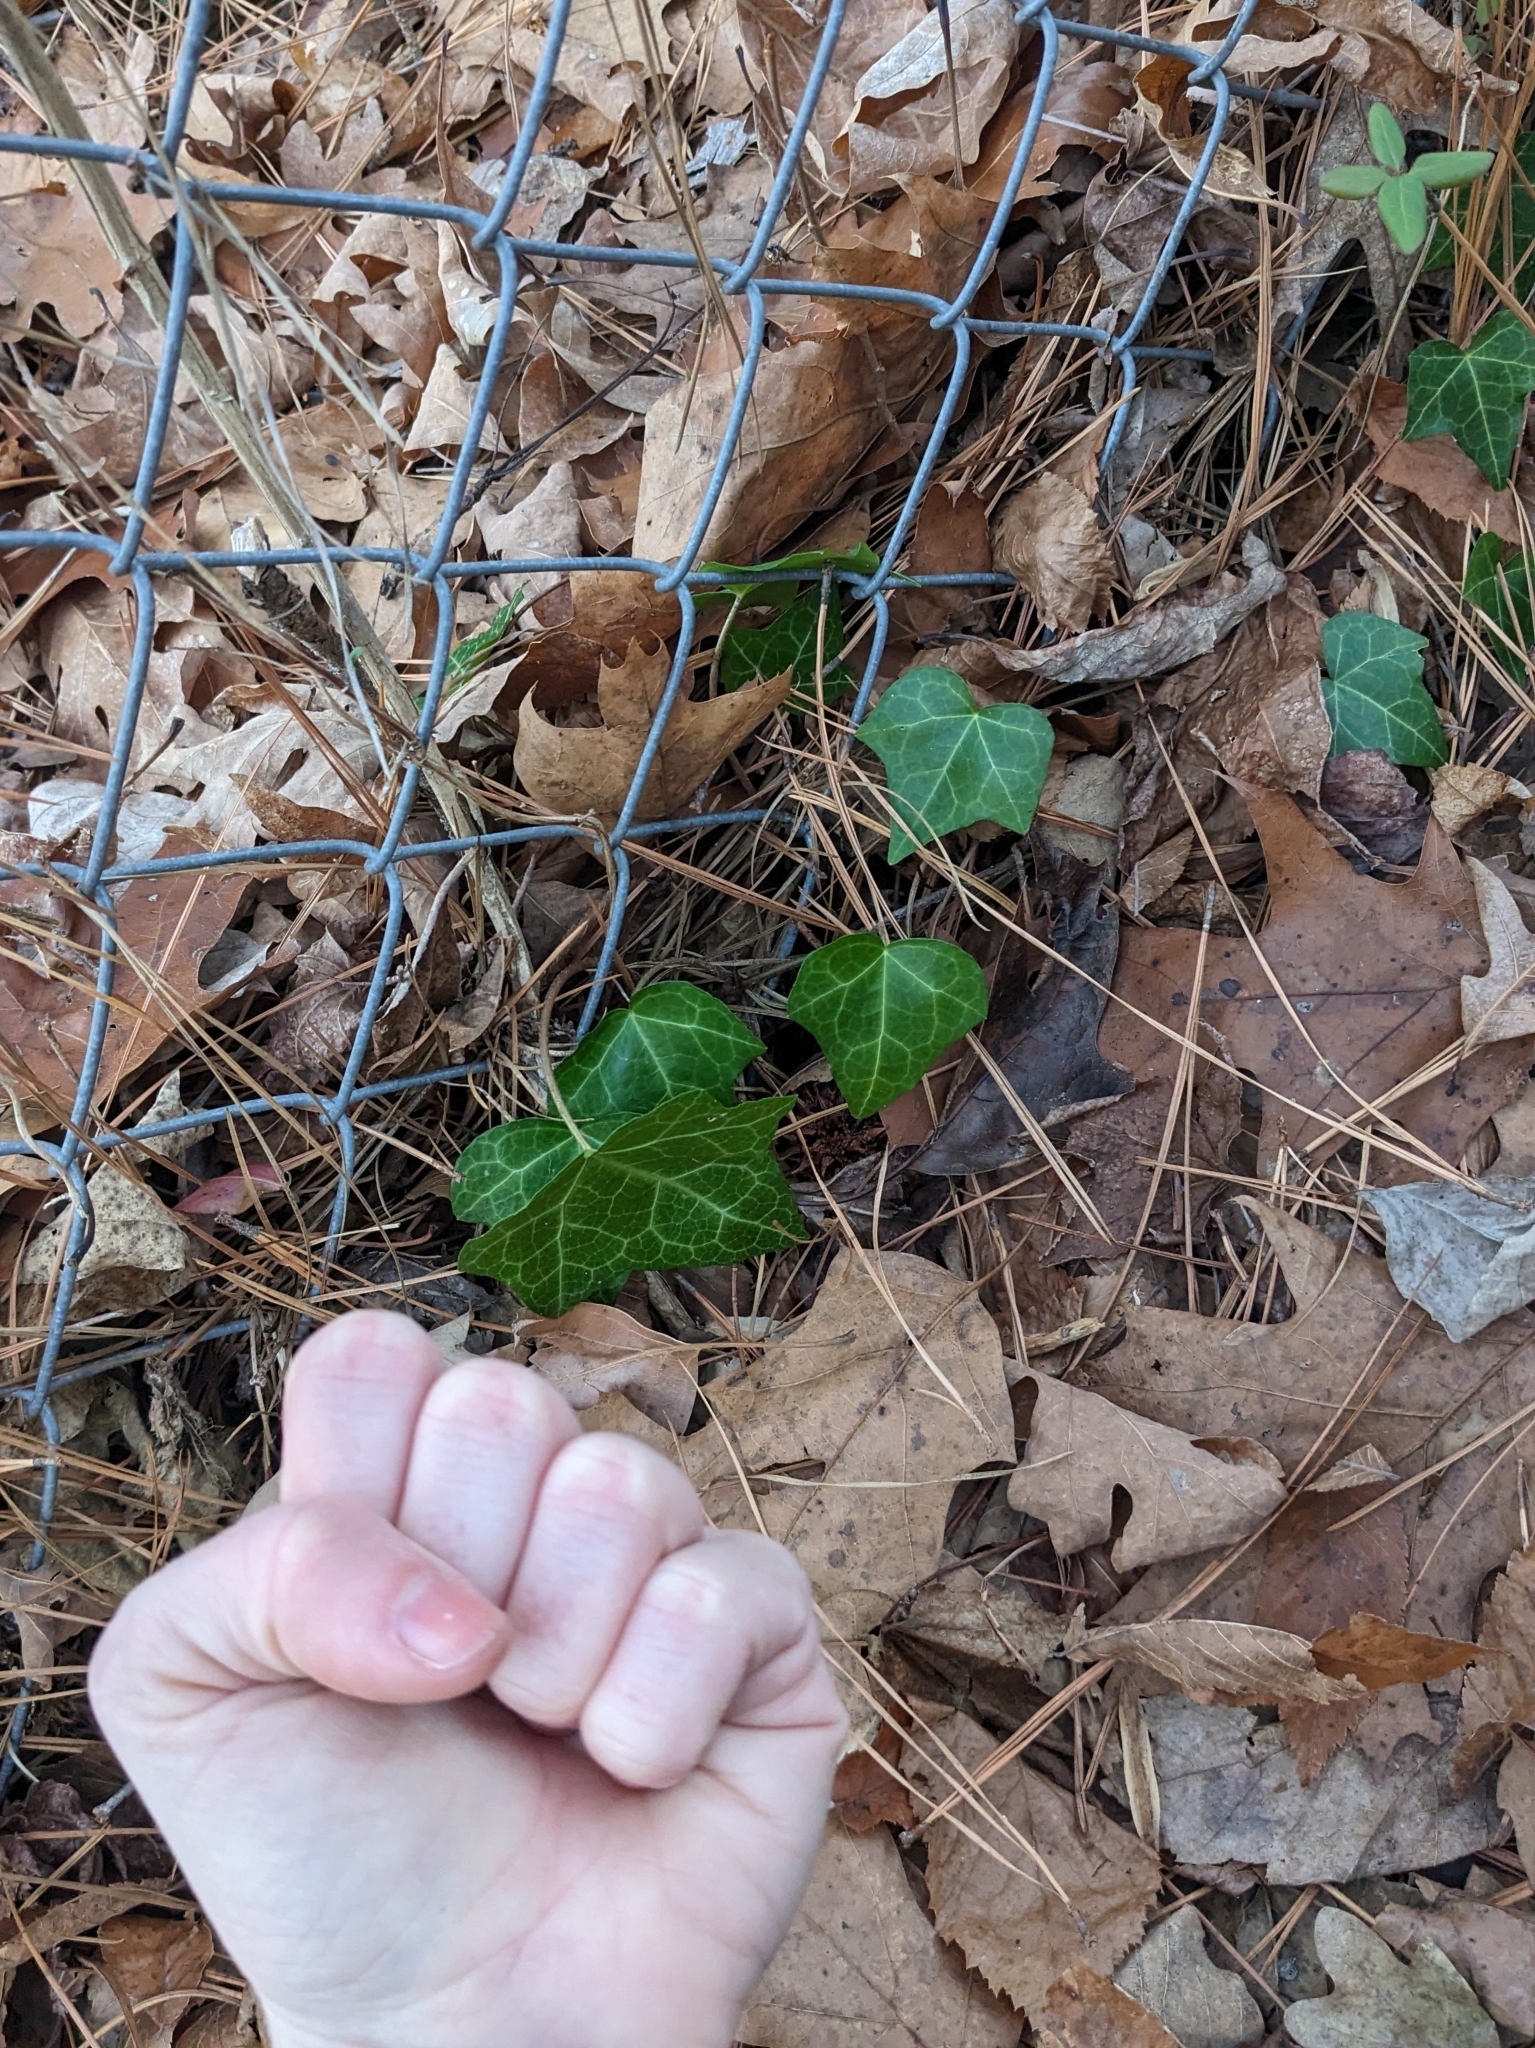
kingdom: Plantae
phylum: Tracheophyta
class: Magnoliopsida
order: Apiales
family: Araliaceae
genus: Hedera
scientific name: Hedera helix
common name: Ivy
